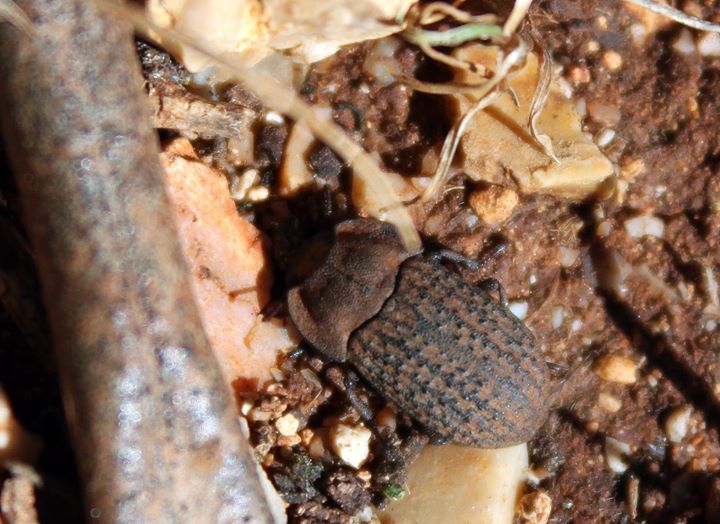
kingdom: Animalia
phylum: Arthropoda
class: Insecta
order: Coleoptera
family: Tenebrionidae
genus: Opatrum
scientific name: Opatrum verrucosum
